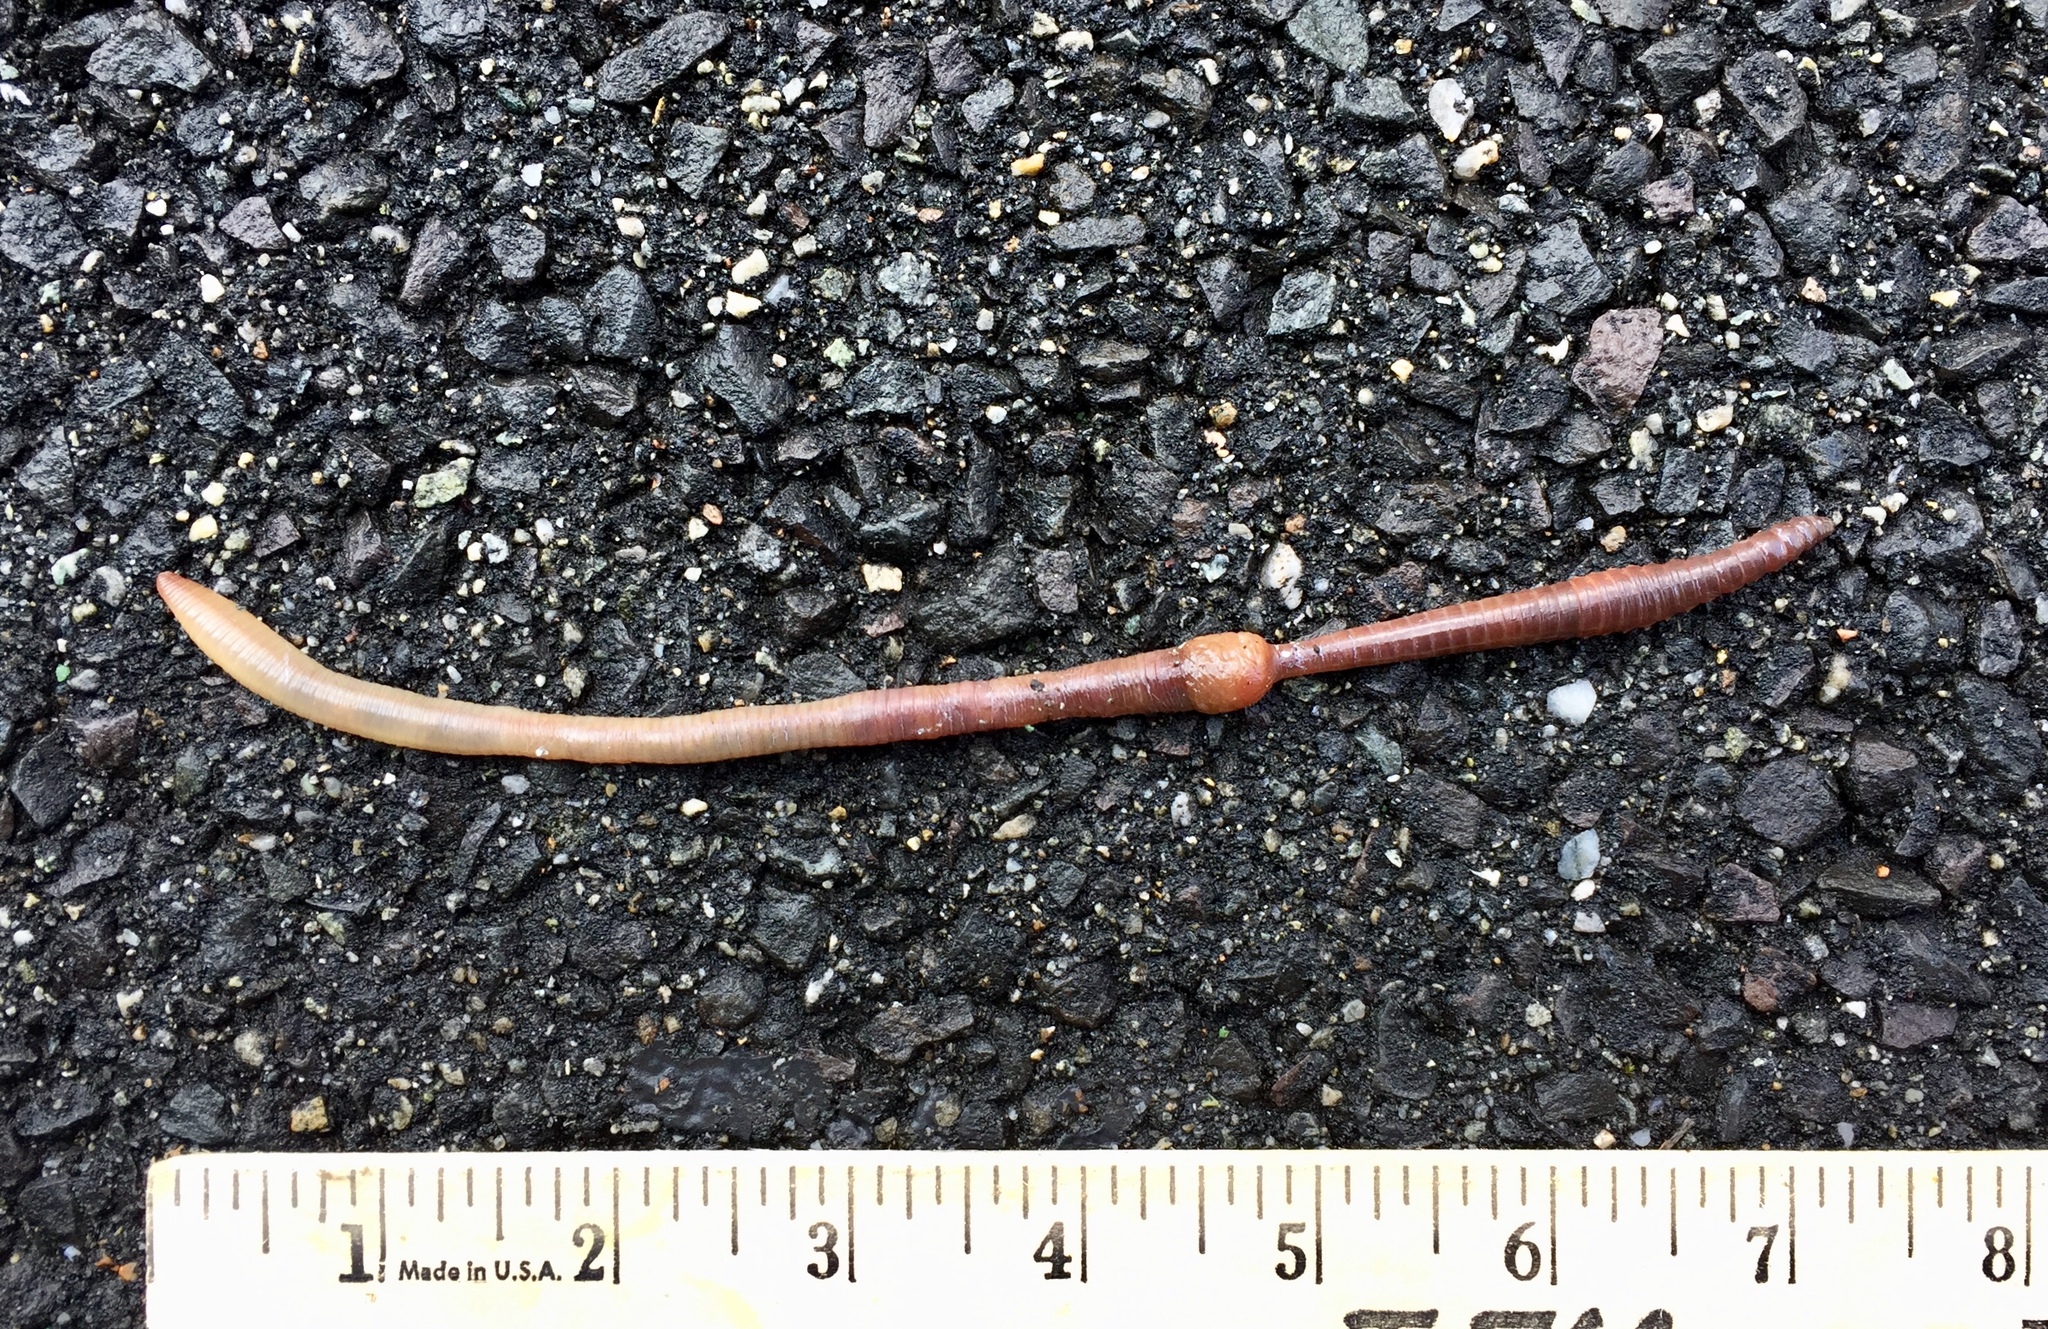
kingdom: Animalia
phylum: Annelida
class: Clitellata
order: Crassiclitellata
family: Lumbricidae
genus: Lumbricus
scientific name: Lumbricus terrestris
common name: Common earthworm
